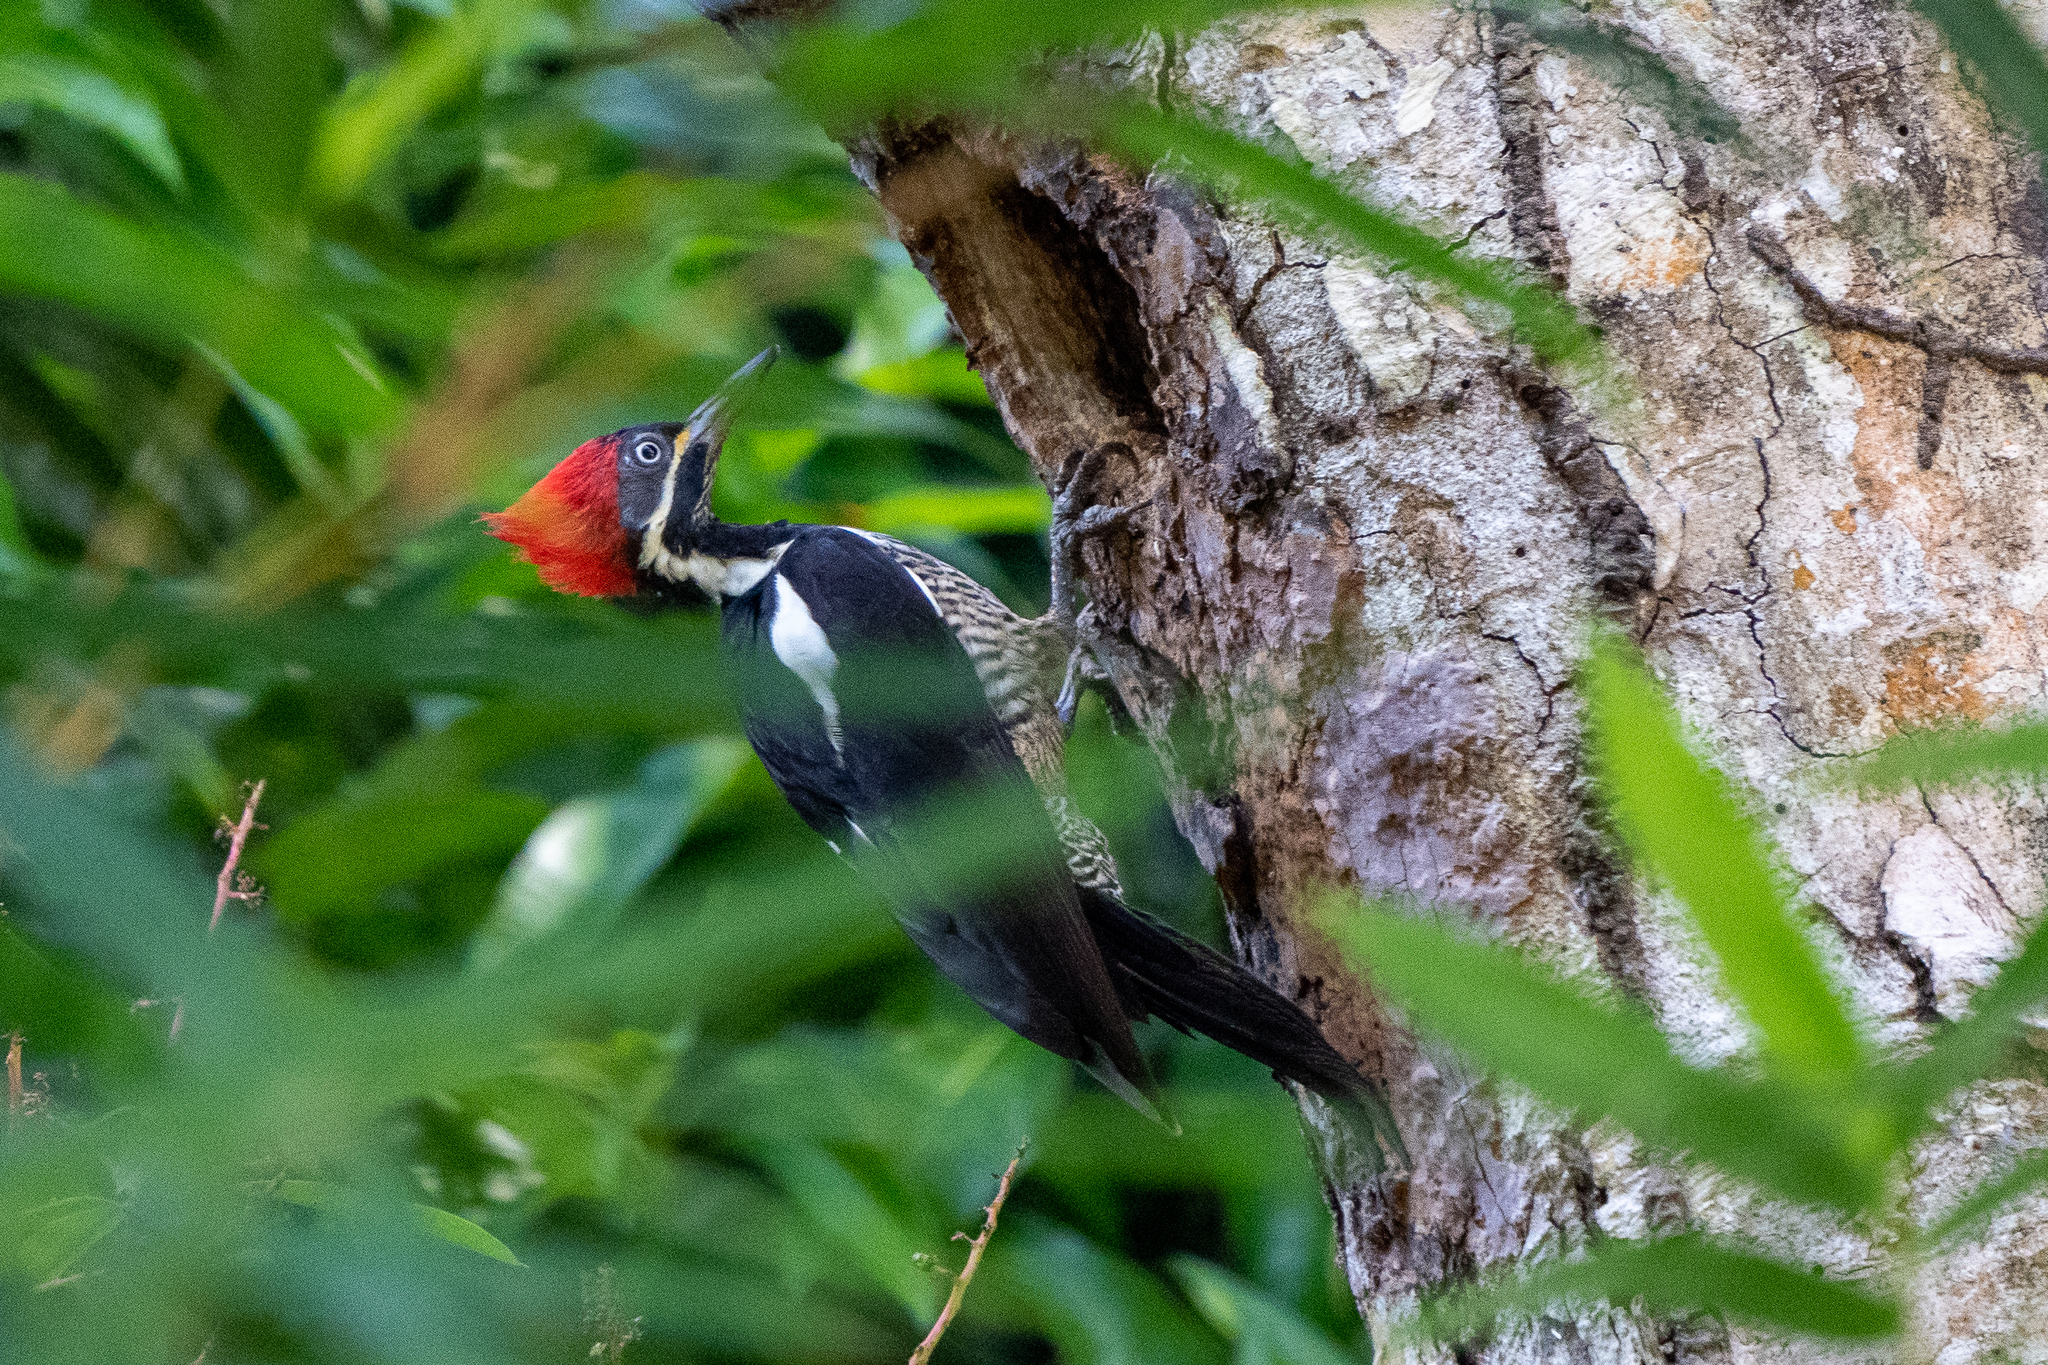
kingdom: Animalia
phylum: Chordata
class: Aves
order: Piciformes
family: Picidae
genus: Dryocopus
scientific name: Dryocopus lineatus
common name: Lineated woodpecker
